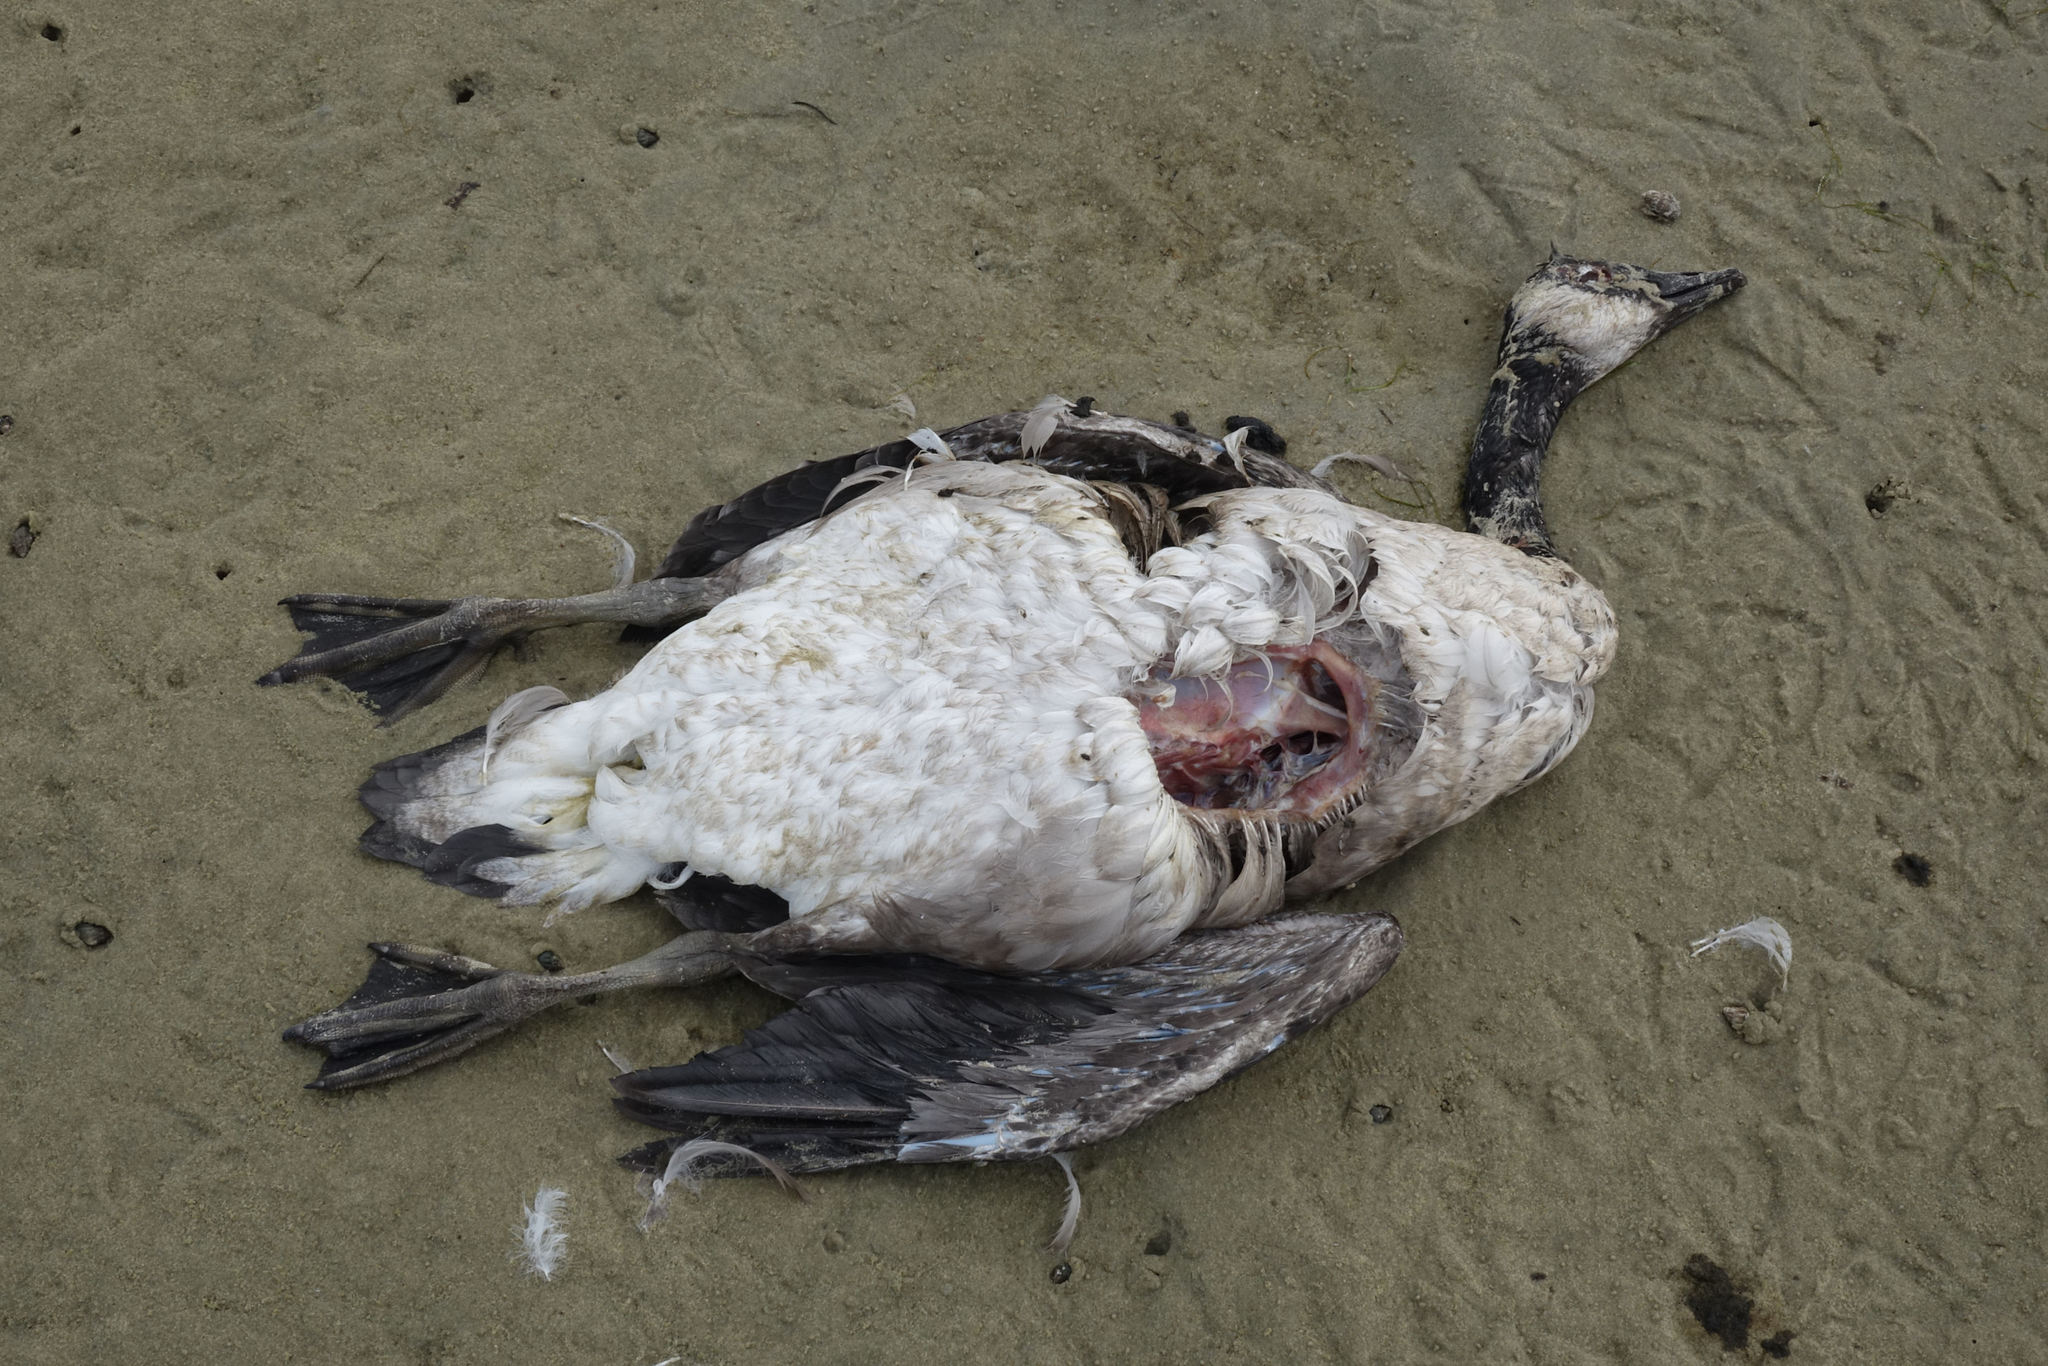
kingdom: Animalia
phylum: Chordata
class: Aves
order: Anseriformes
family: Anatidae
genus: Branta
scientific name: Branta canadensis
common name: Canada goose
